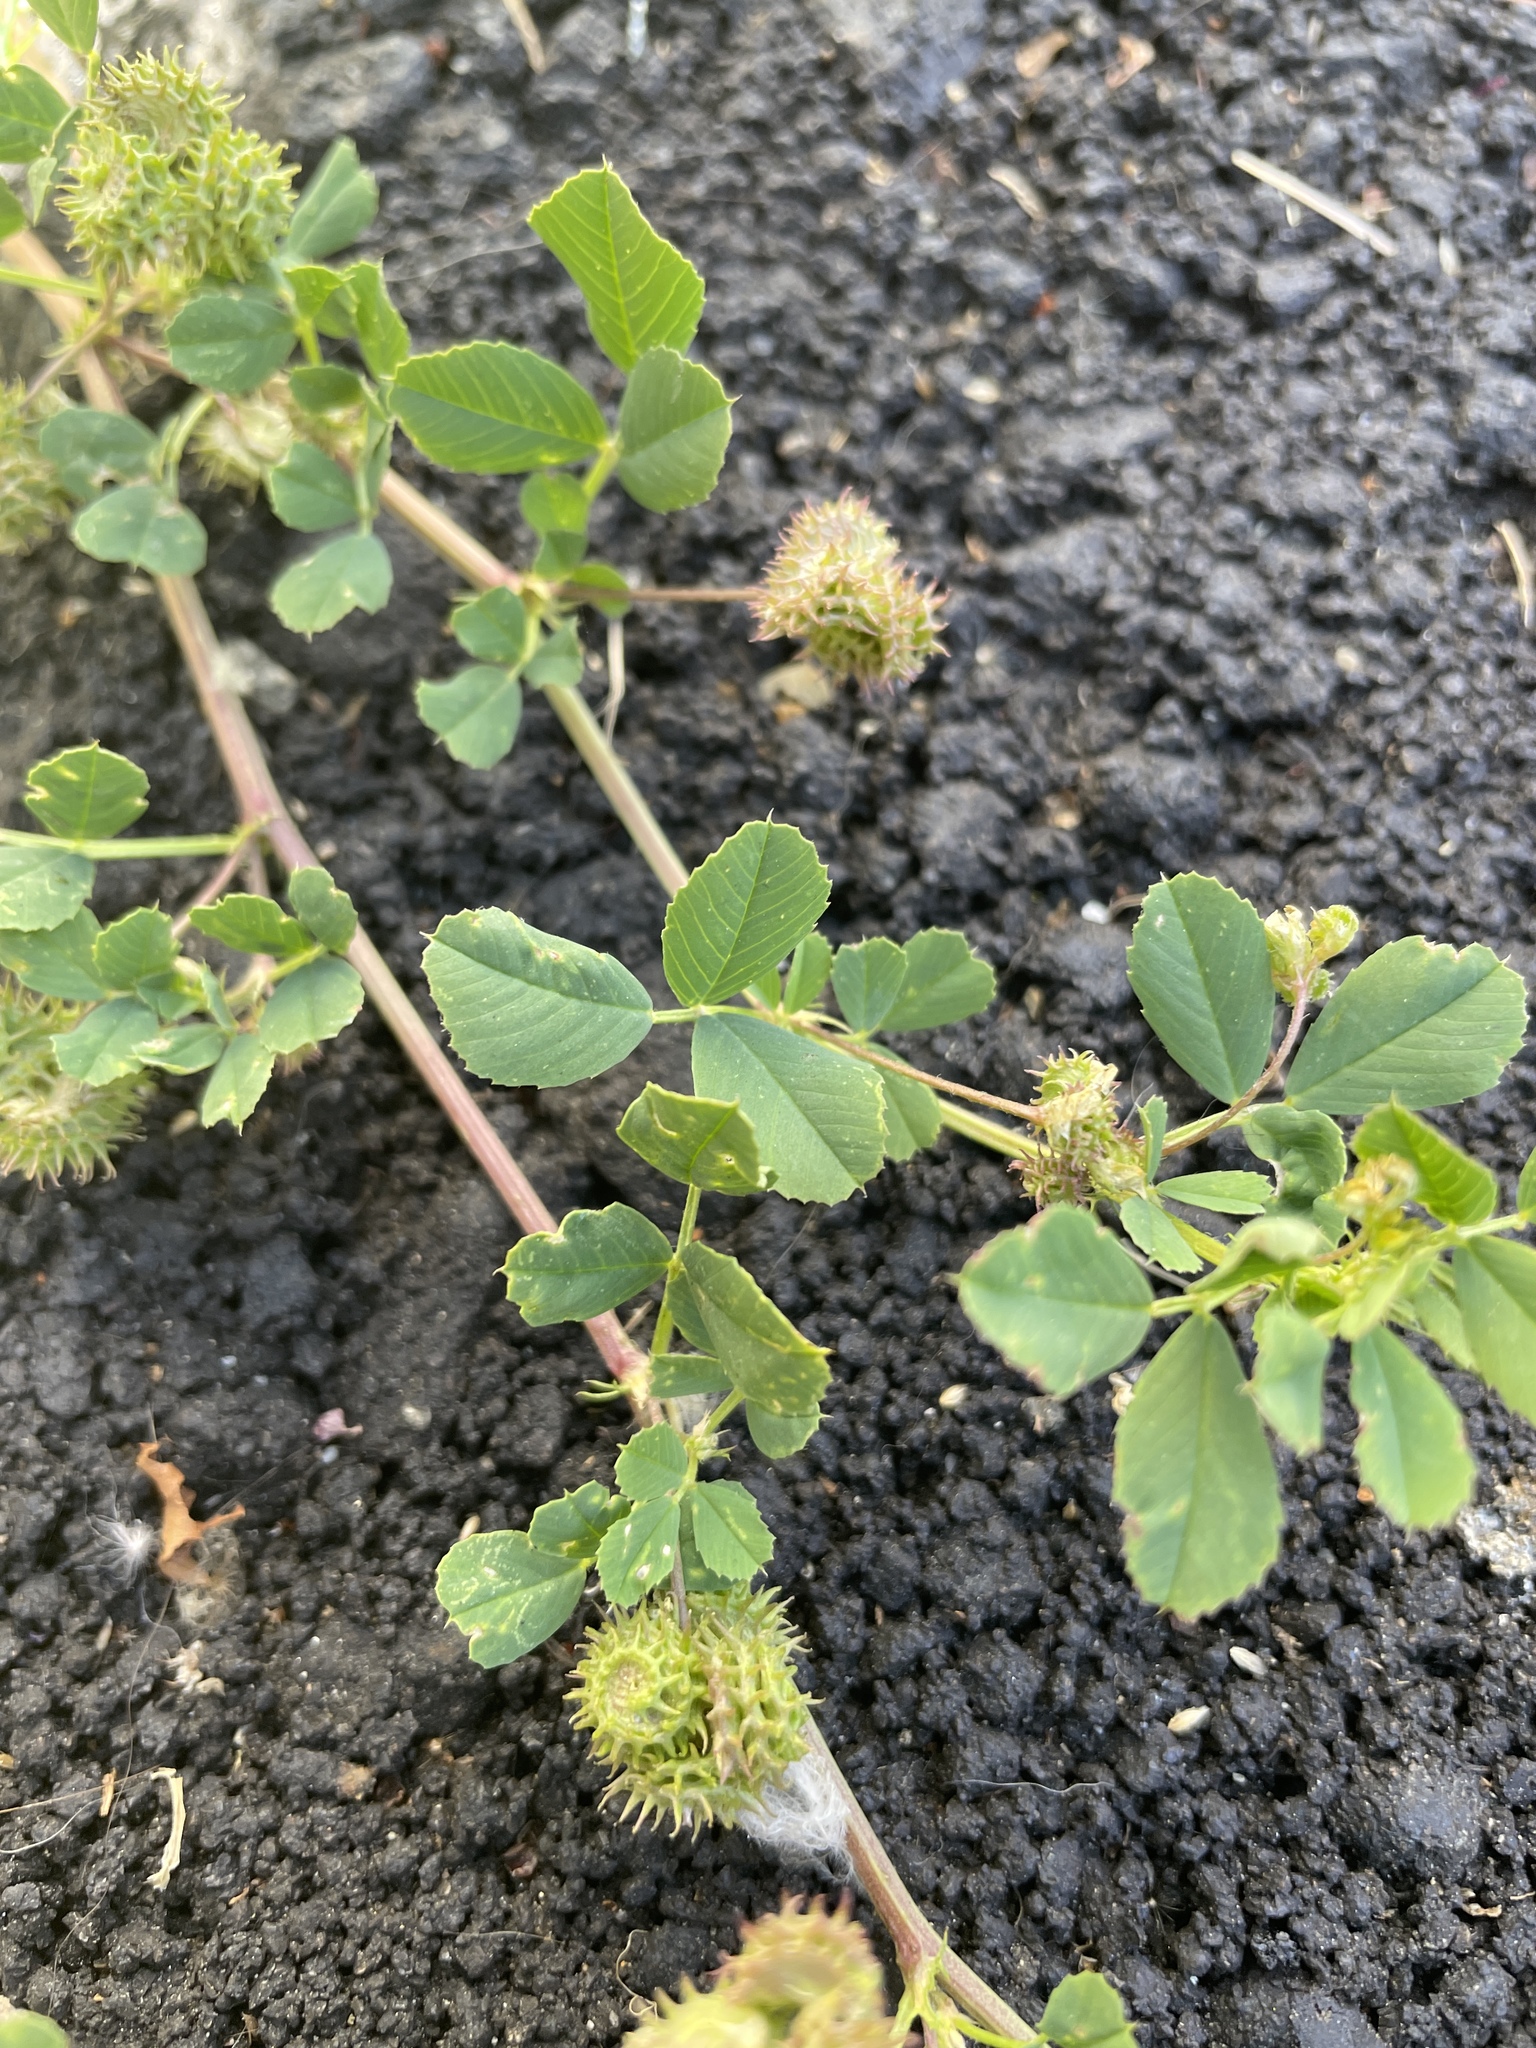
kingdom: Plantae
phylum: Tracheophyta
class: Magnoliopsida
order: Fabales
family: Fabaceae
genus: Medicago
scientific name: Medicago polymorpha
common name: Burclover
